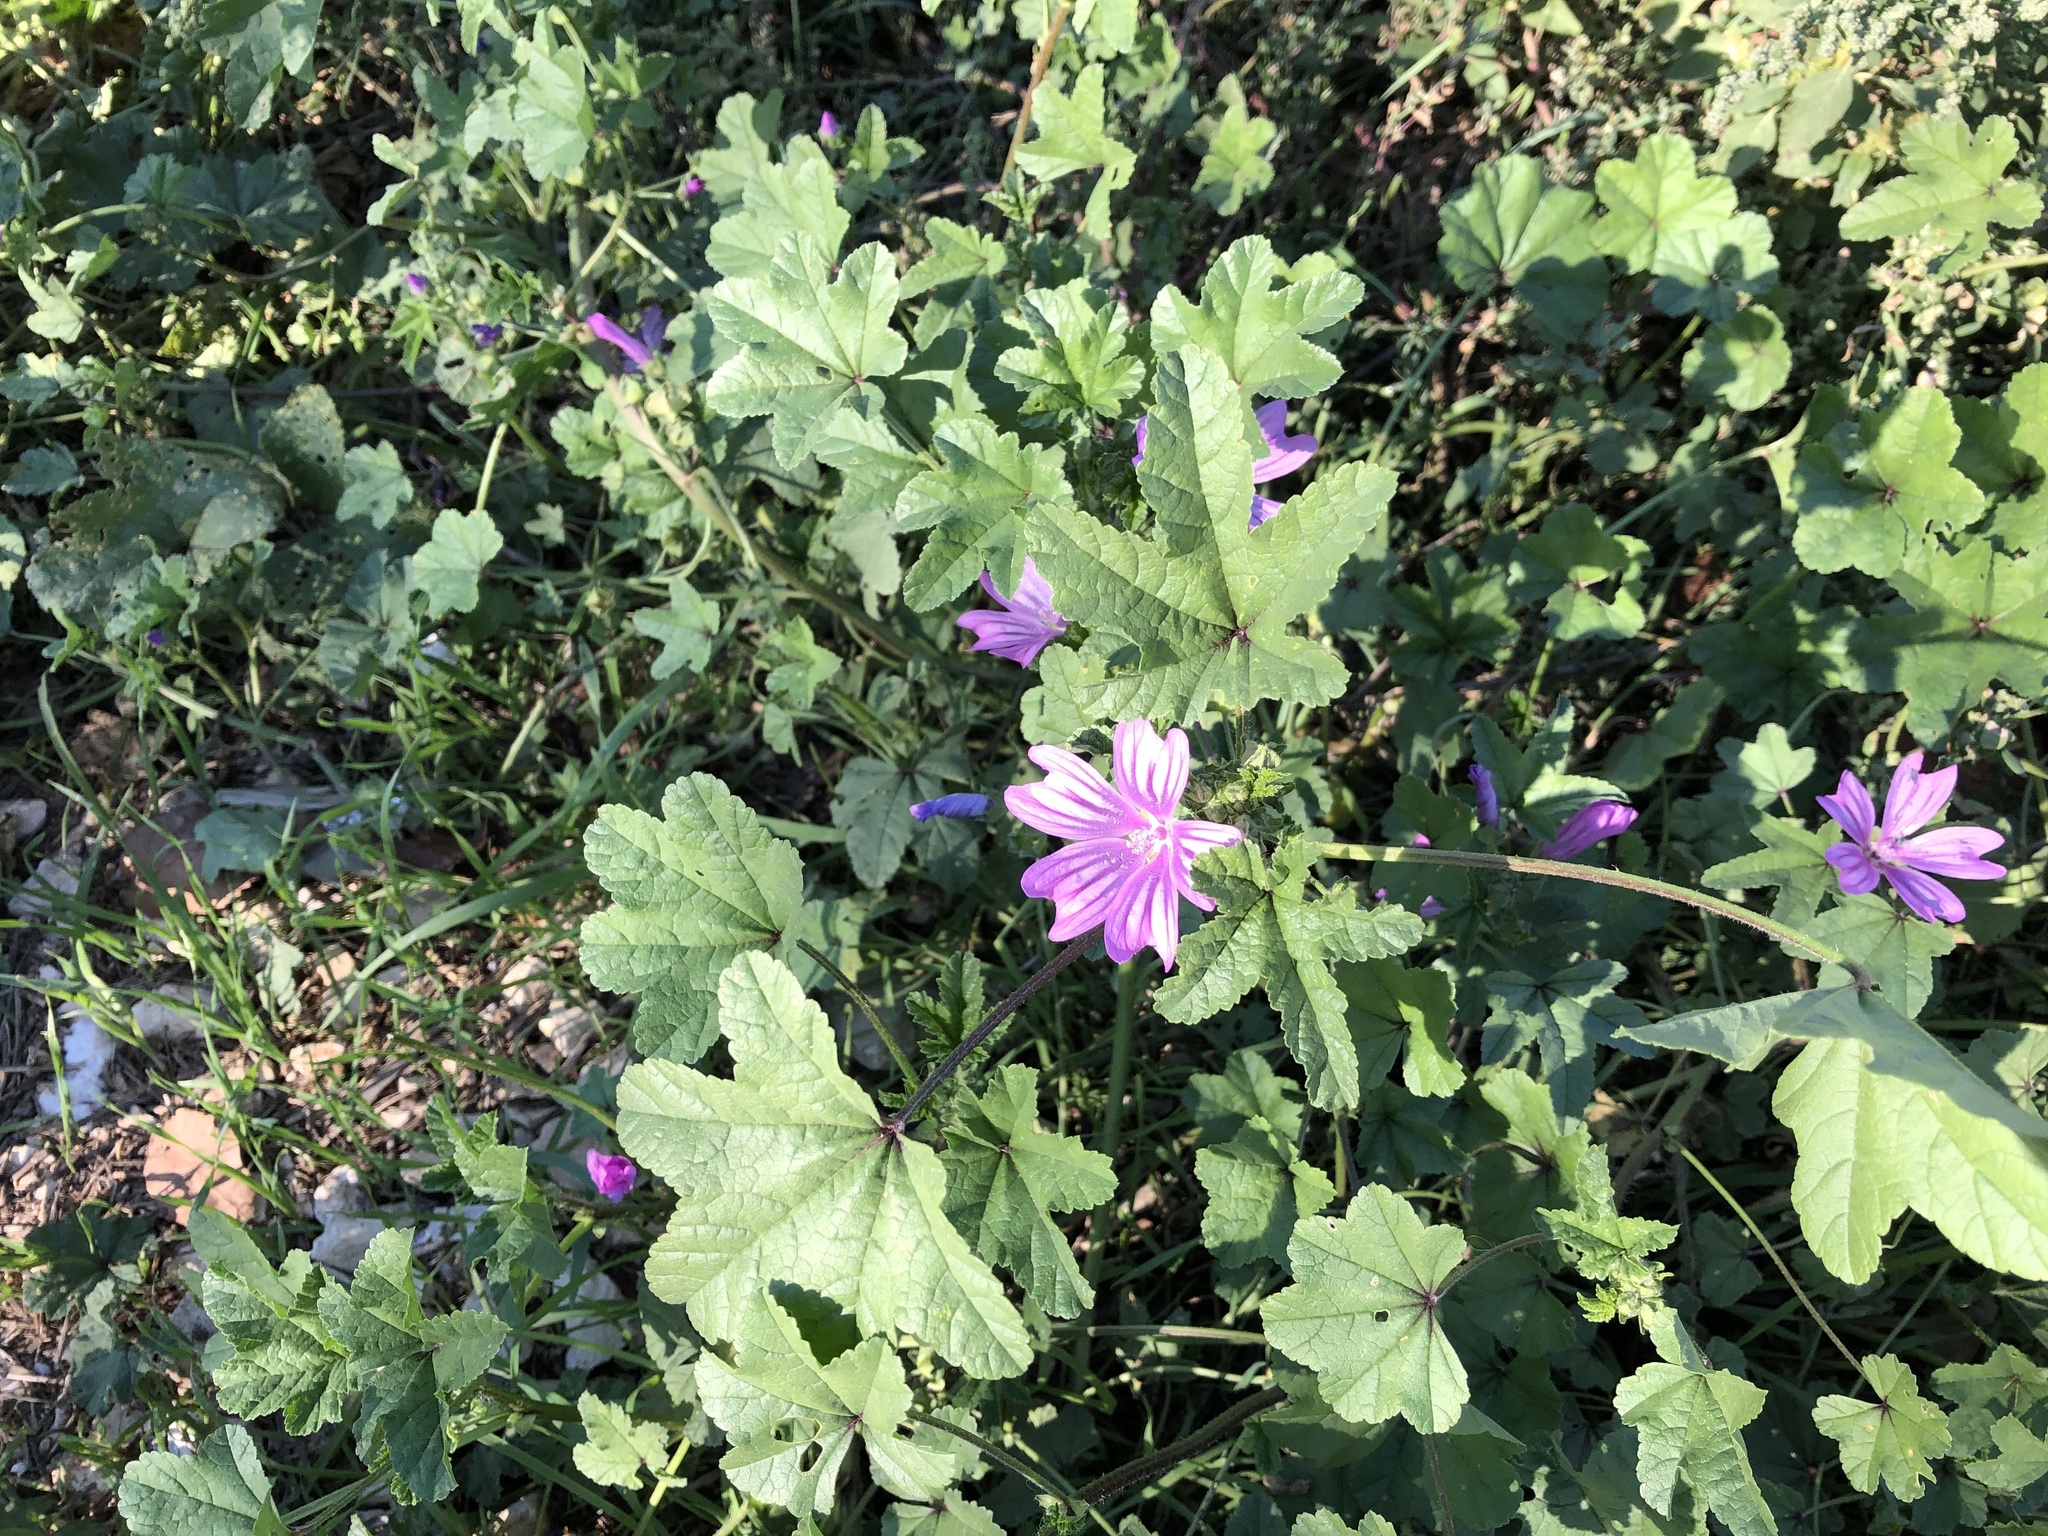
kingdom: Plantae
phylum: Tracheophyta
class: Magnoliopsida
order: Malvales
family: Malvaceae
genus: Malva
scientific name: Malva sylvestris
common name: Common mallow
